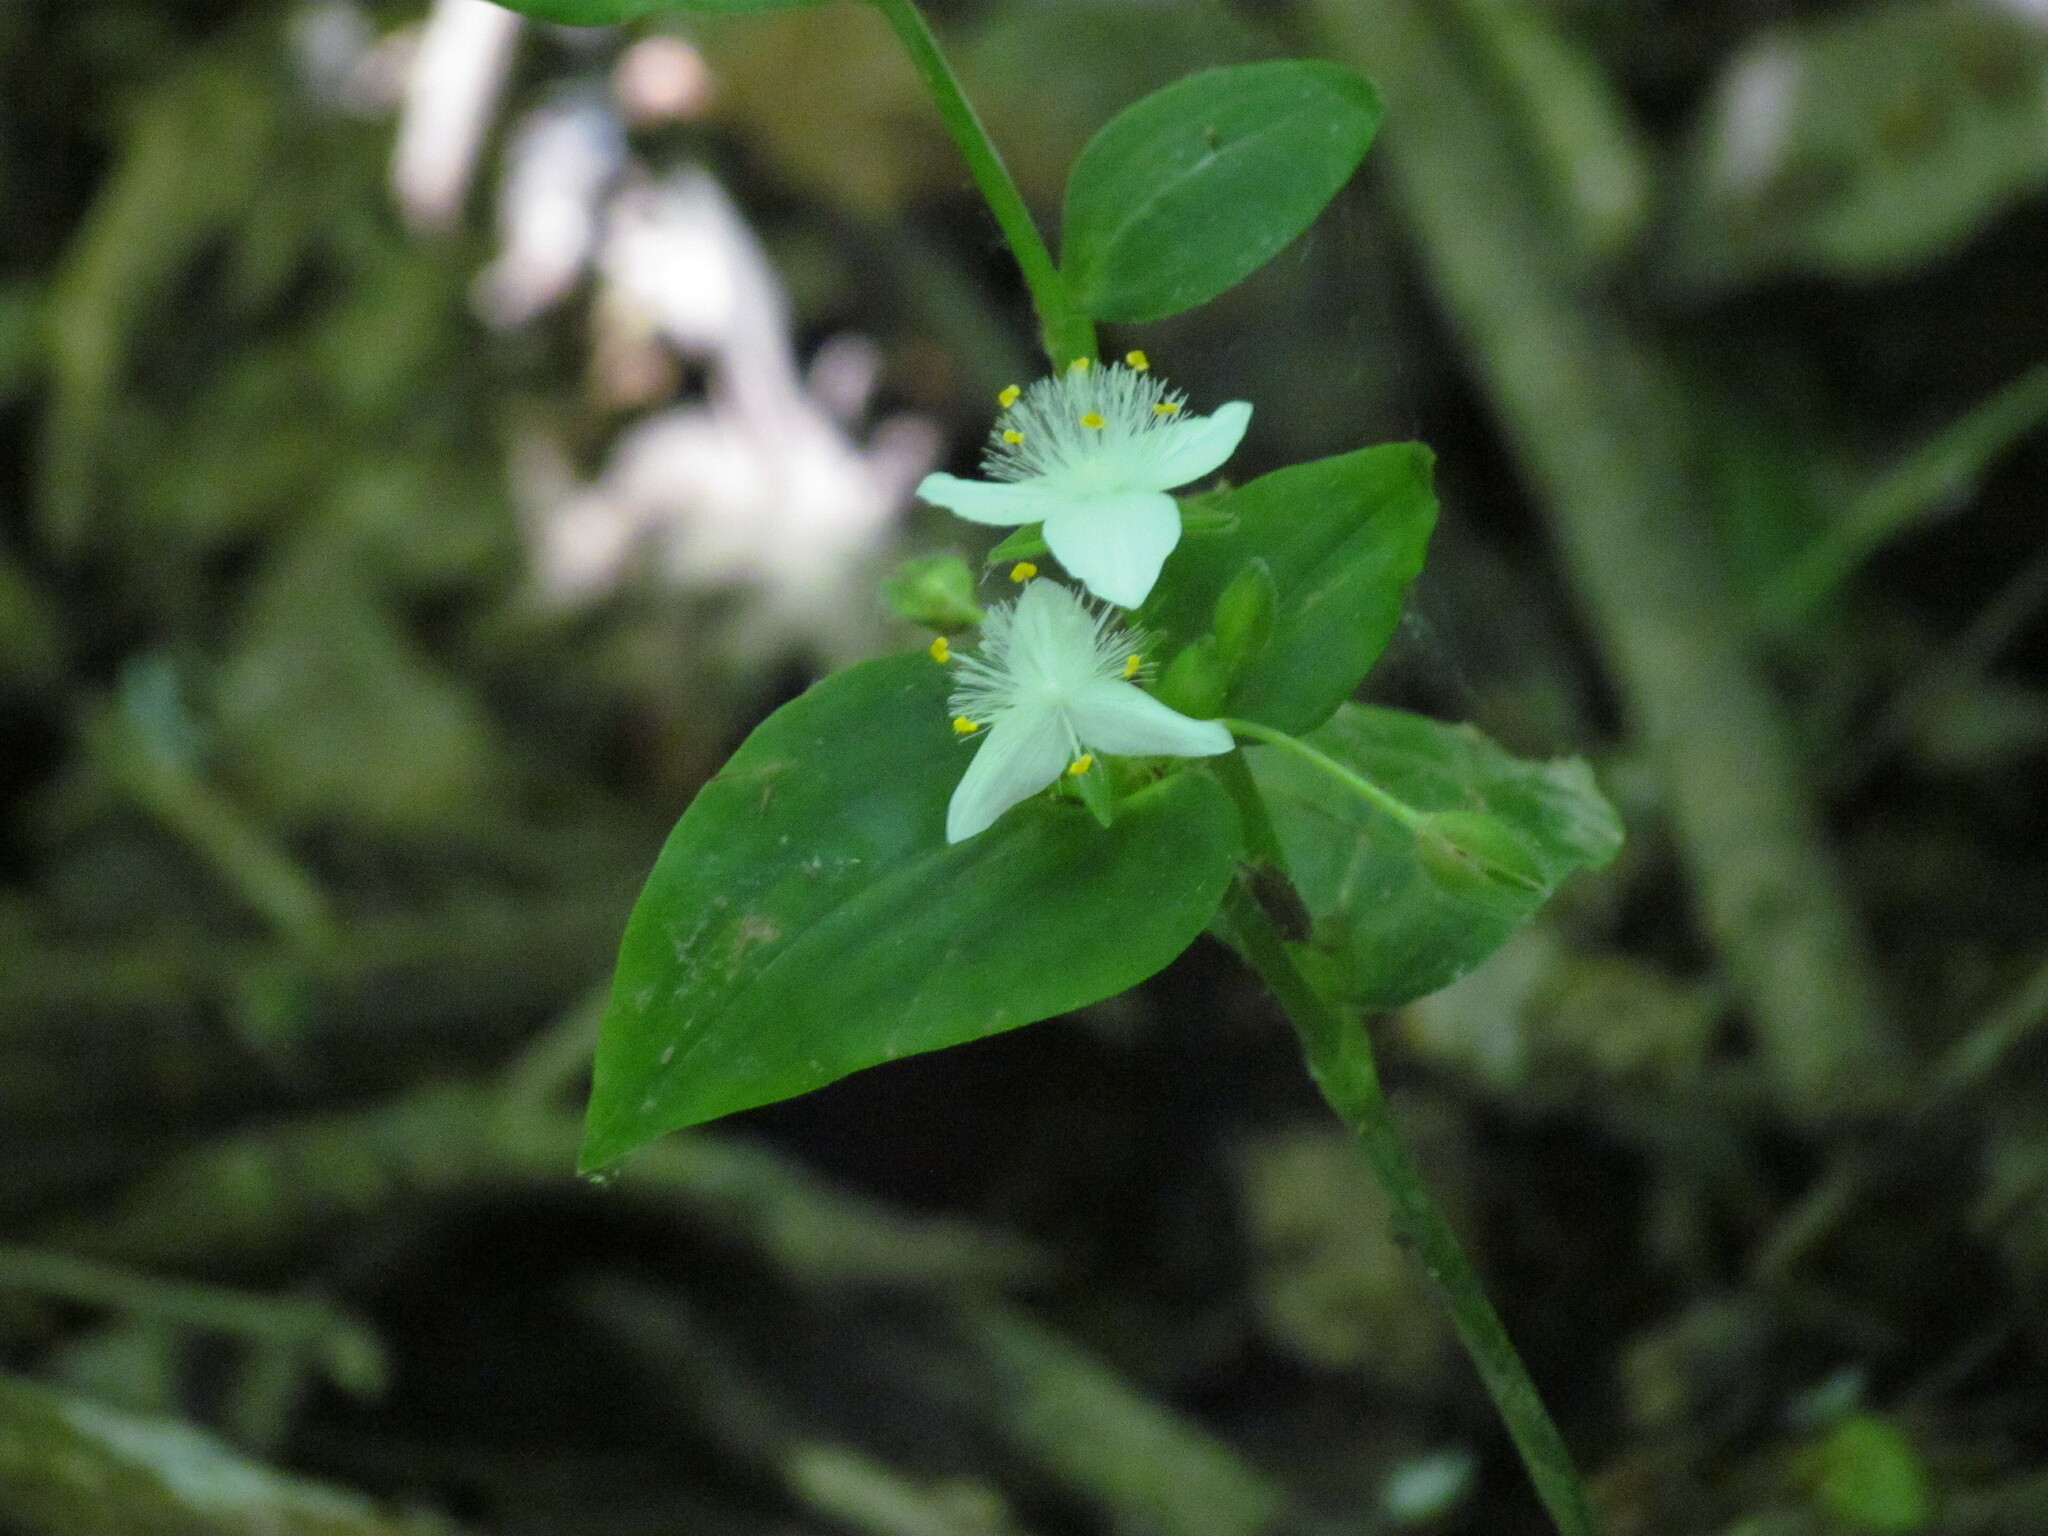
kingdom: Plantae
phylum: Tracheophyta
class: Liliopsida
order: Commelinales
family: Commelinaceae
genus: Tradescantia
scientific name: Tradescantia fluminensis
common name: Wandering-jew
